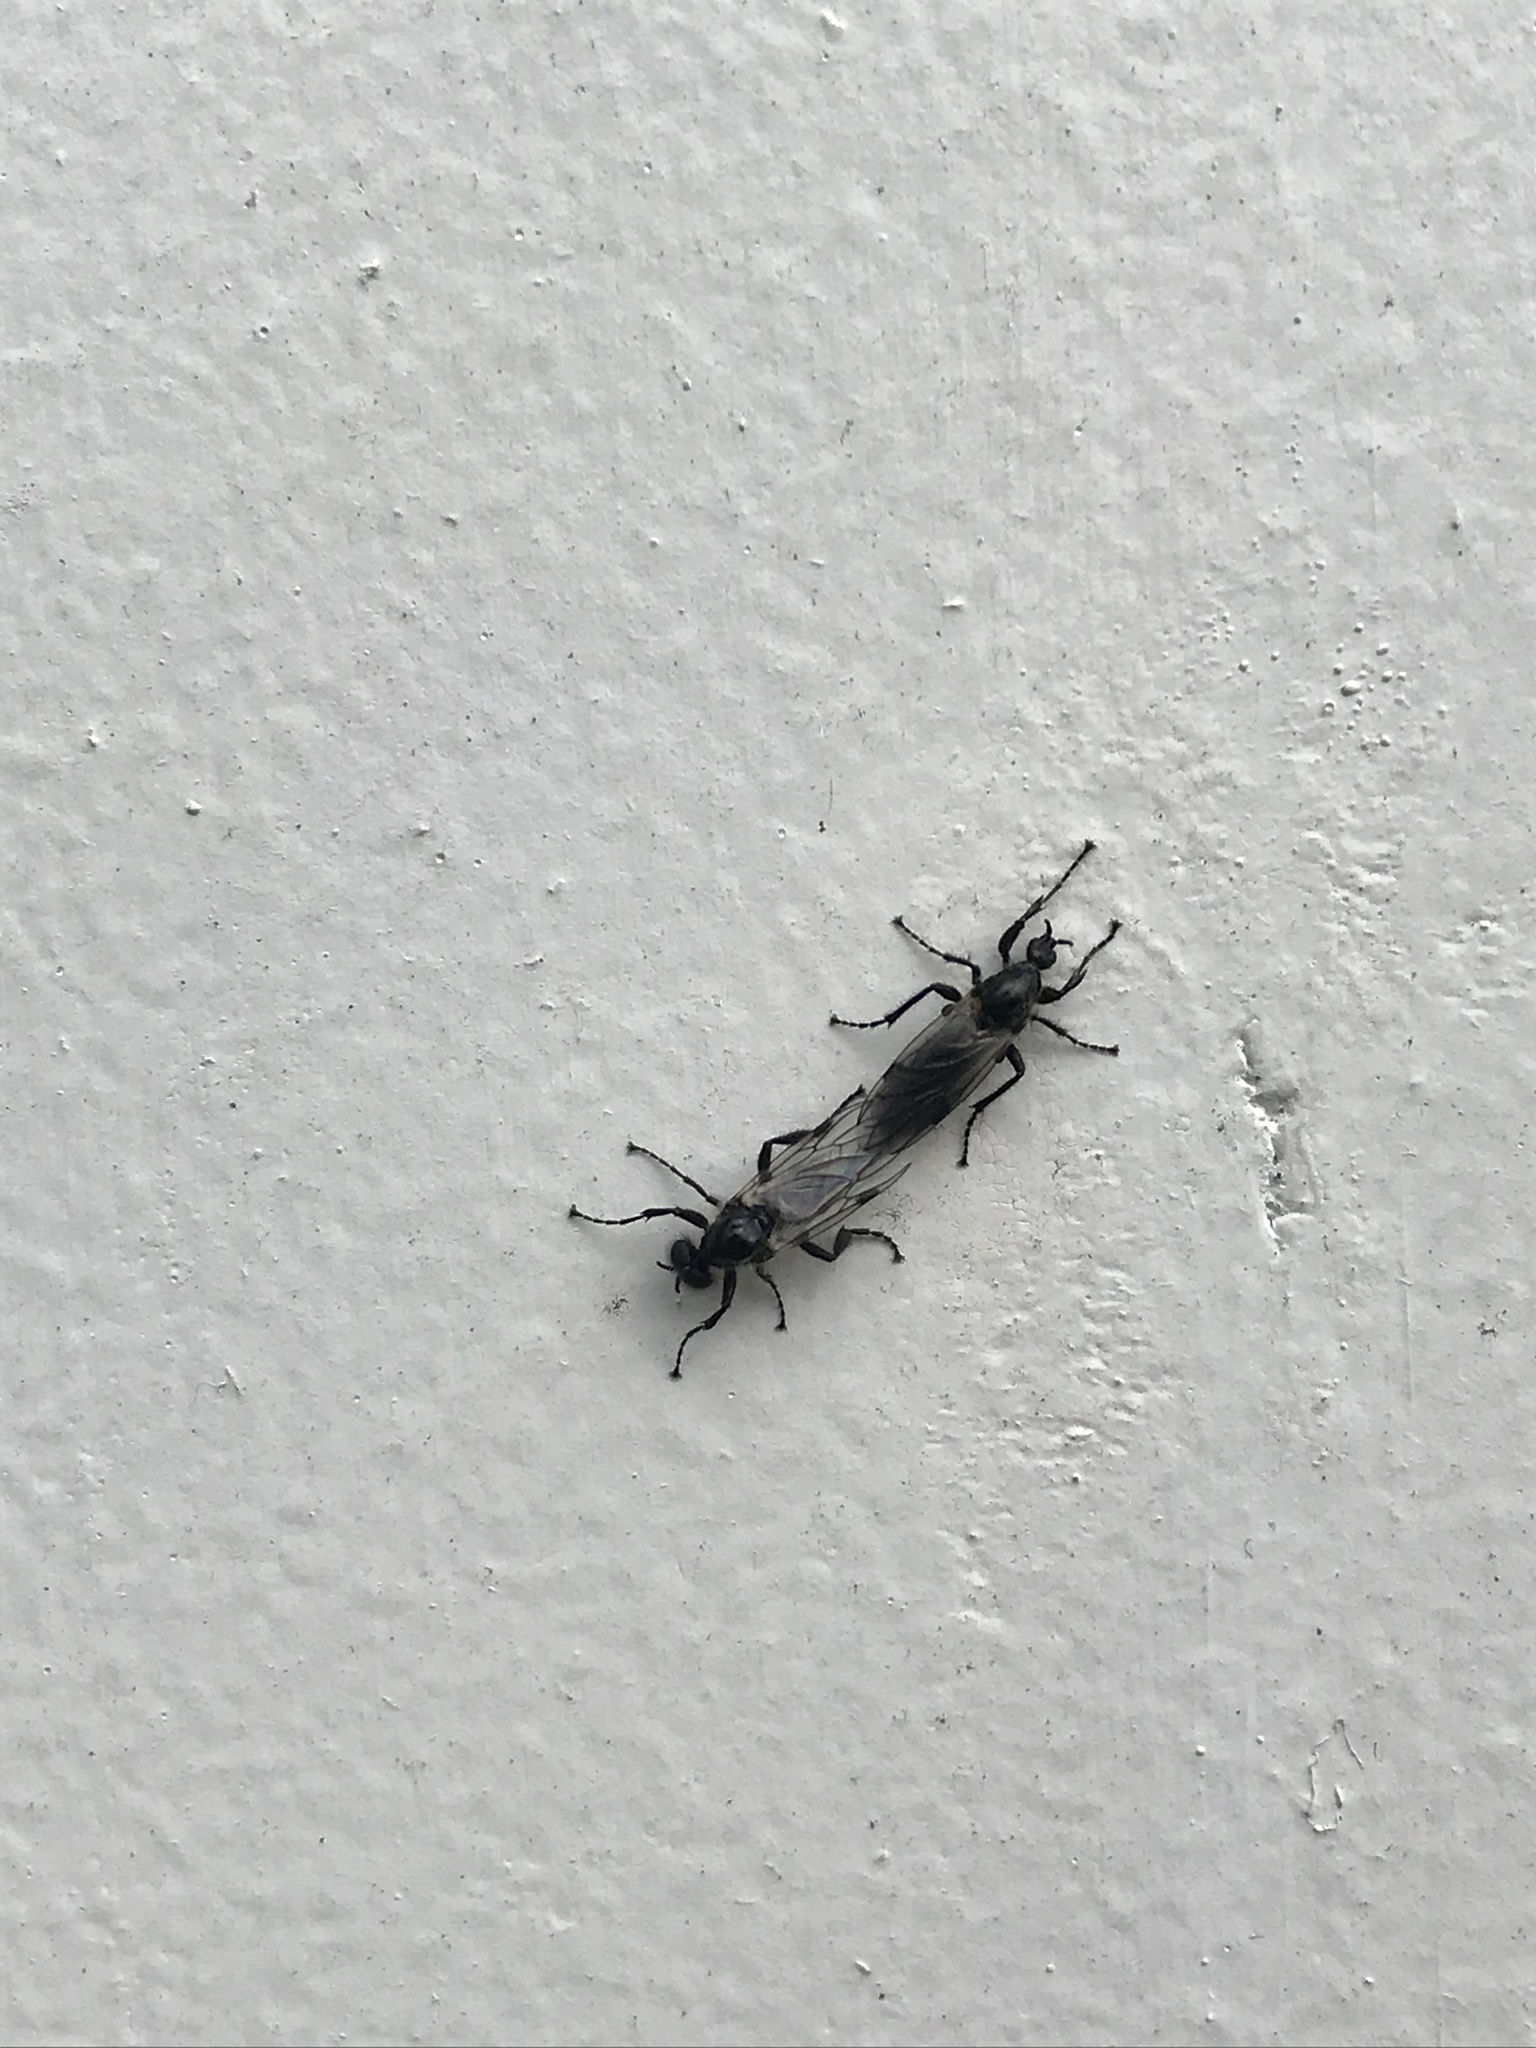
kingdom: Animalia
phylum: Arthropoda
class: Insecta
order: Diptera
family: Bibionidae
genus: Bibio
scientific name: Bibio albipennis
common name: White-winged march fly
